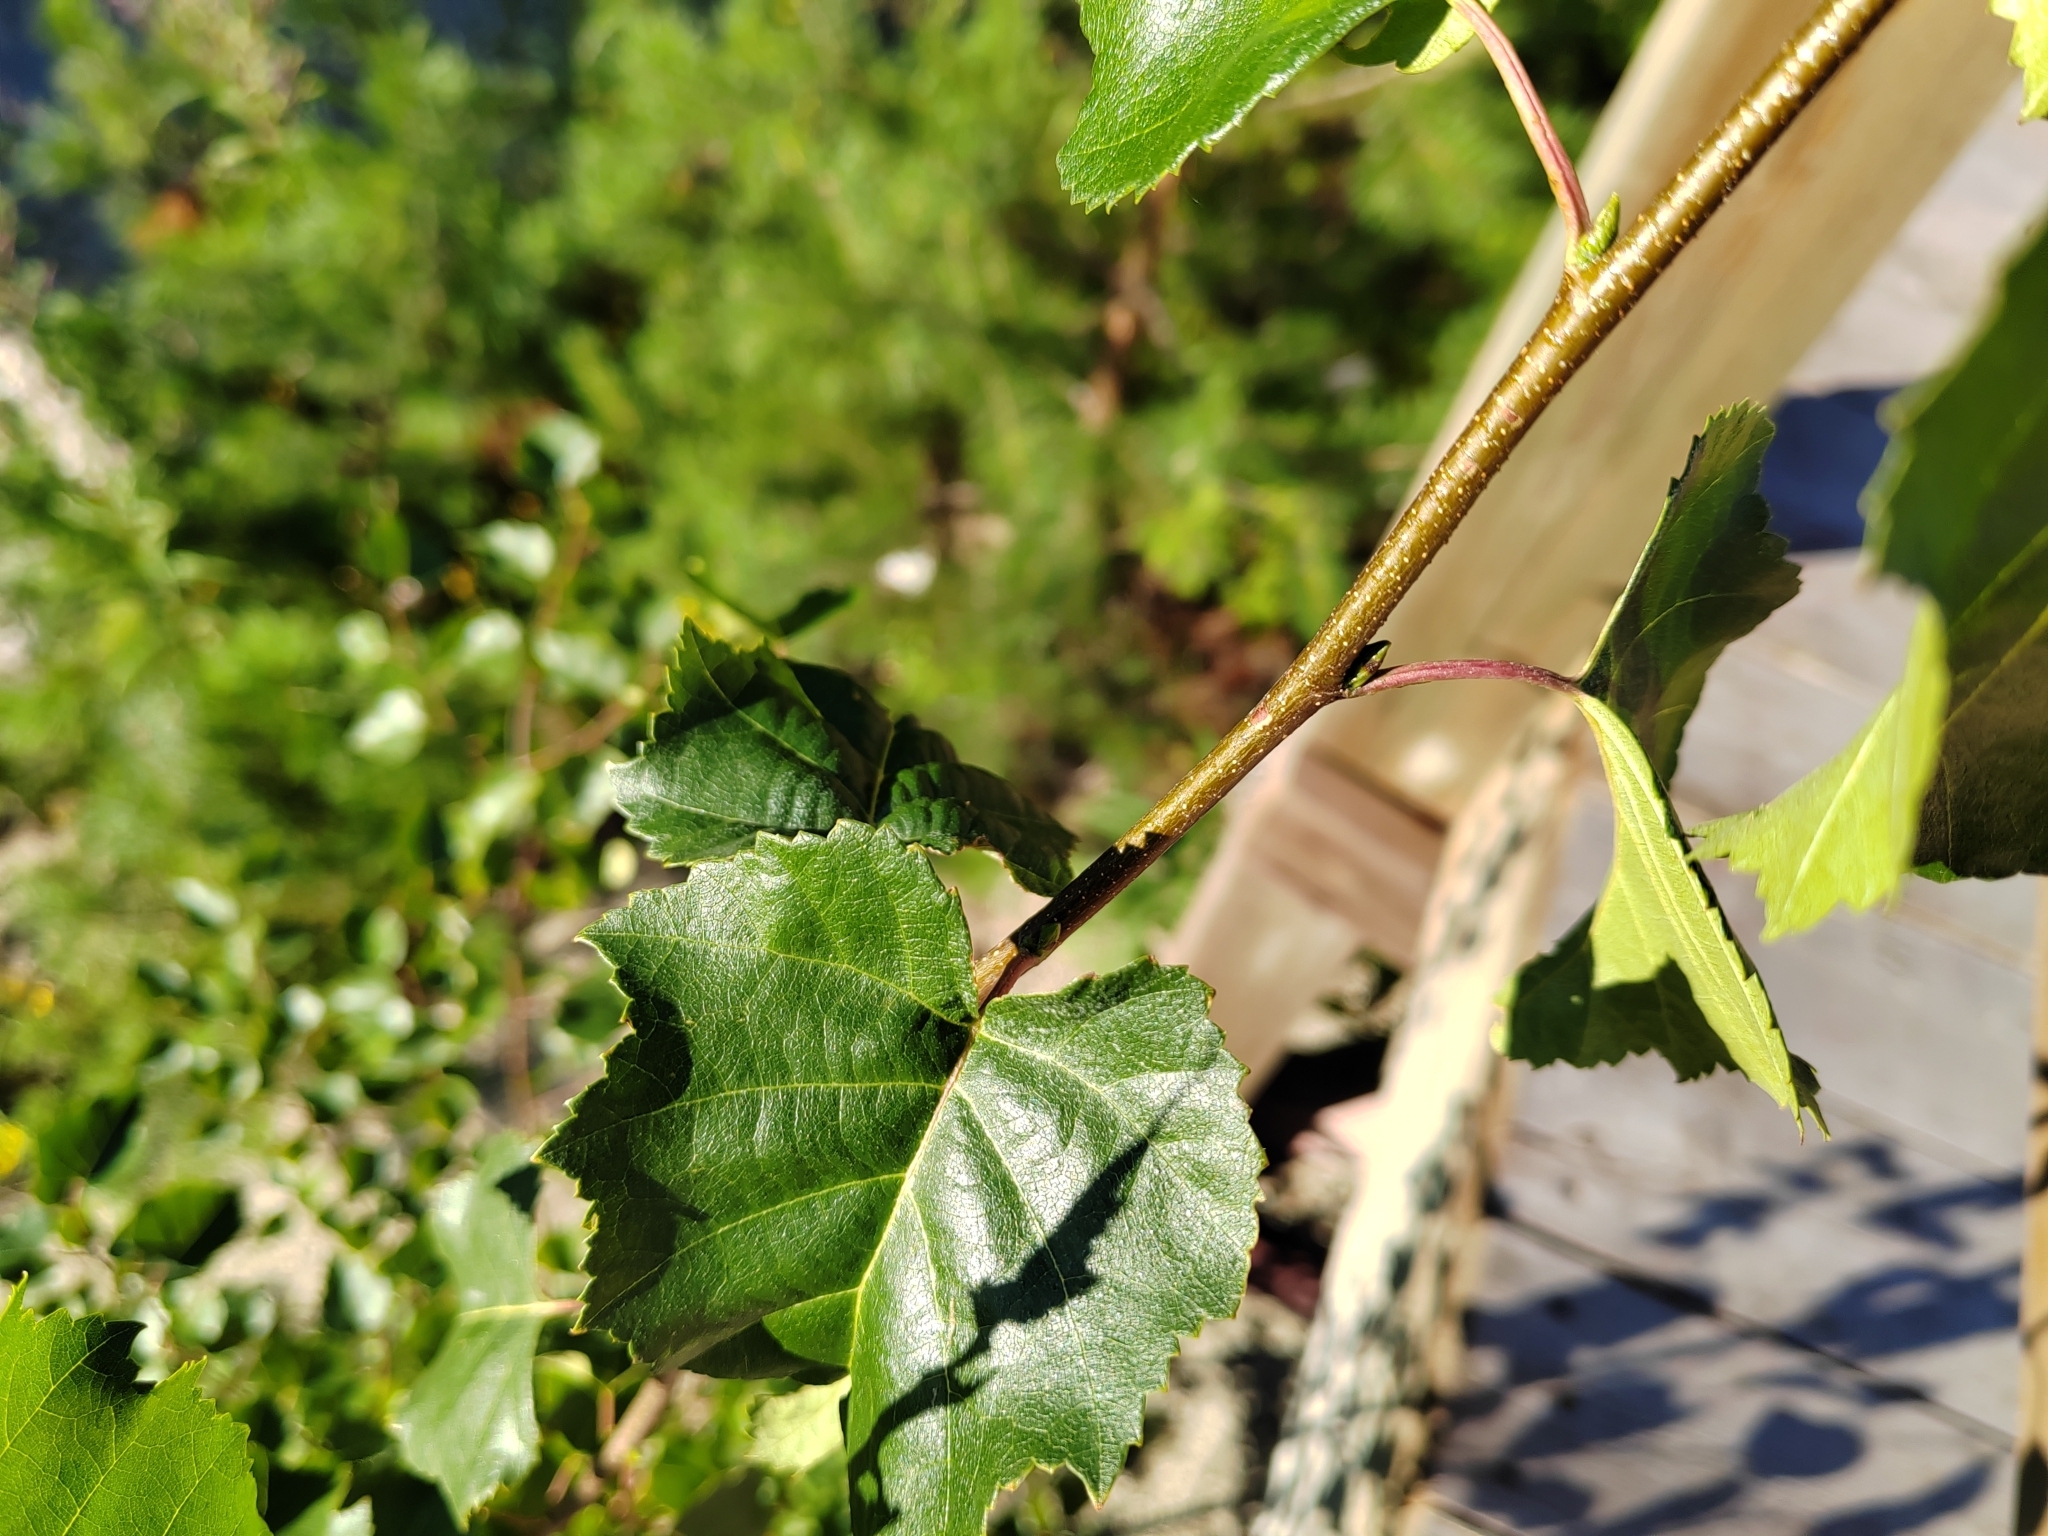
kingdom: Plantae
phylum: Tracheophyta
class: Magnoliopsida
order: Fagales
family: Betulaceae
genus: Betula
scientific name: Betula pubescens
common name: Downy birch
